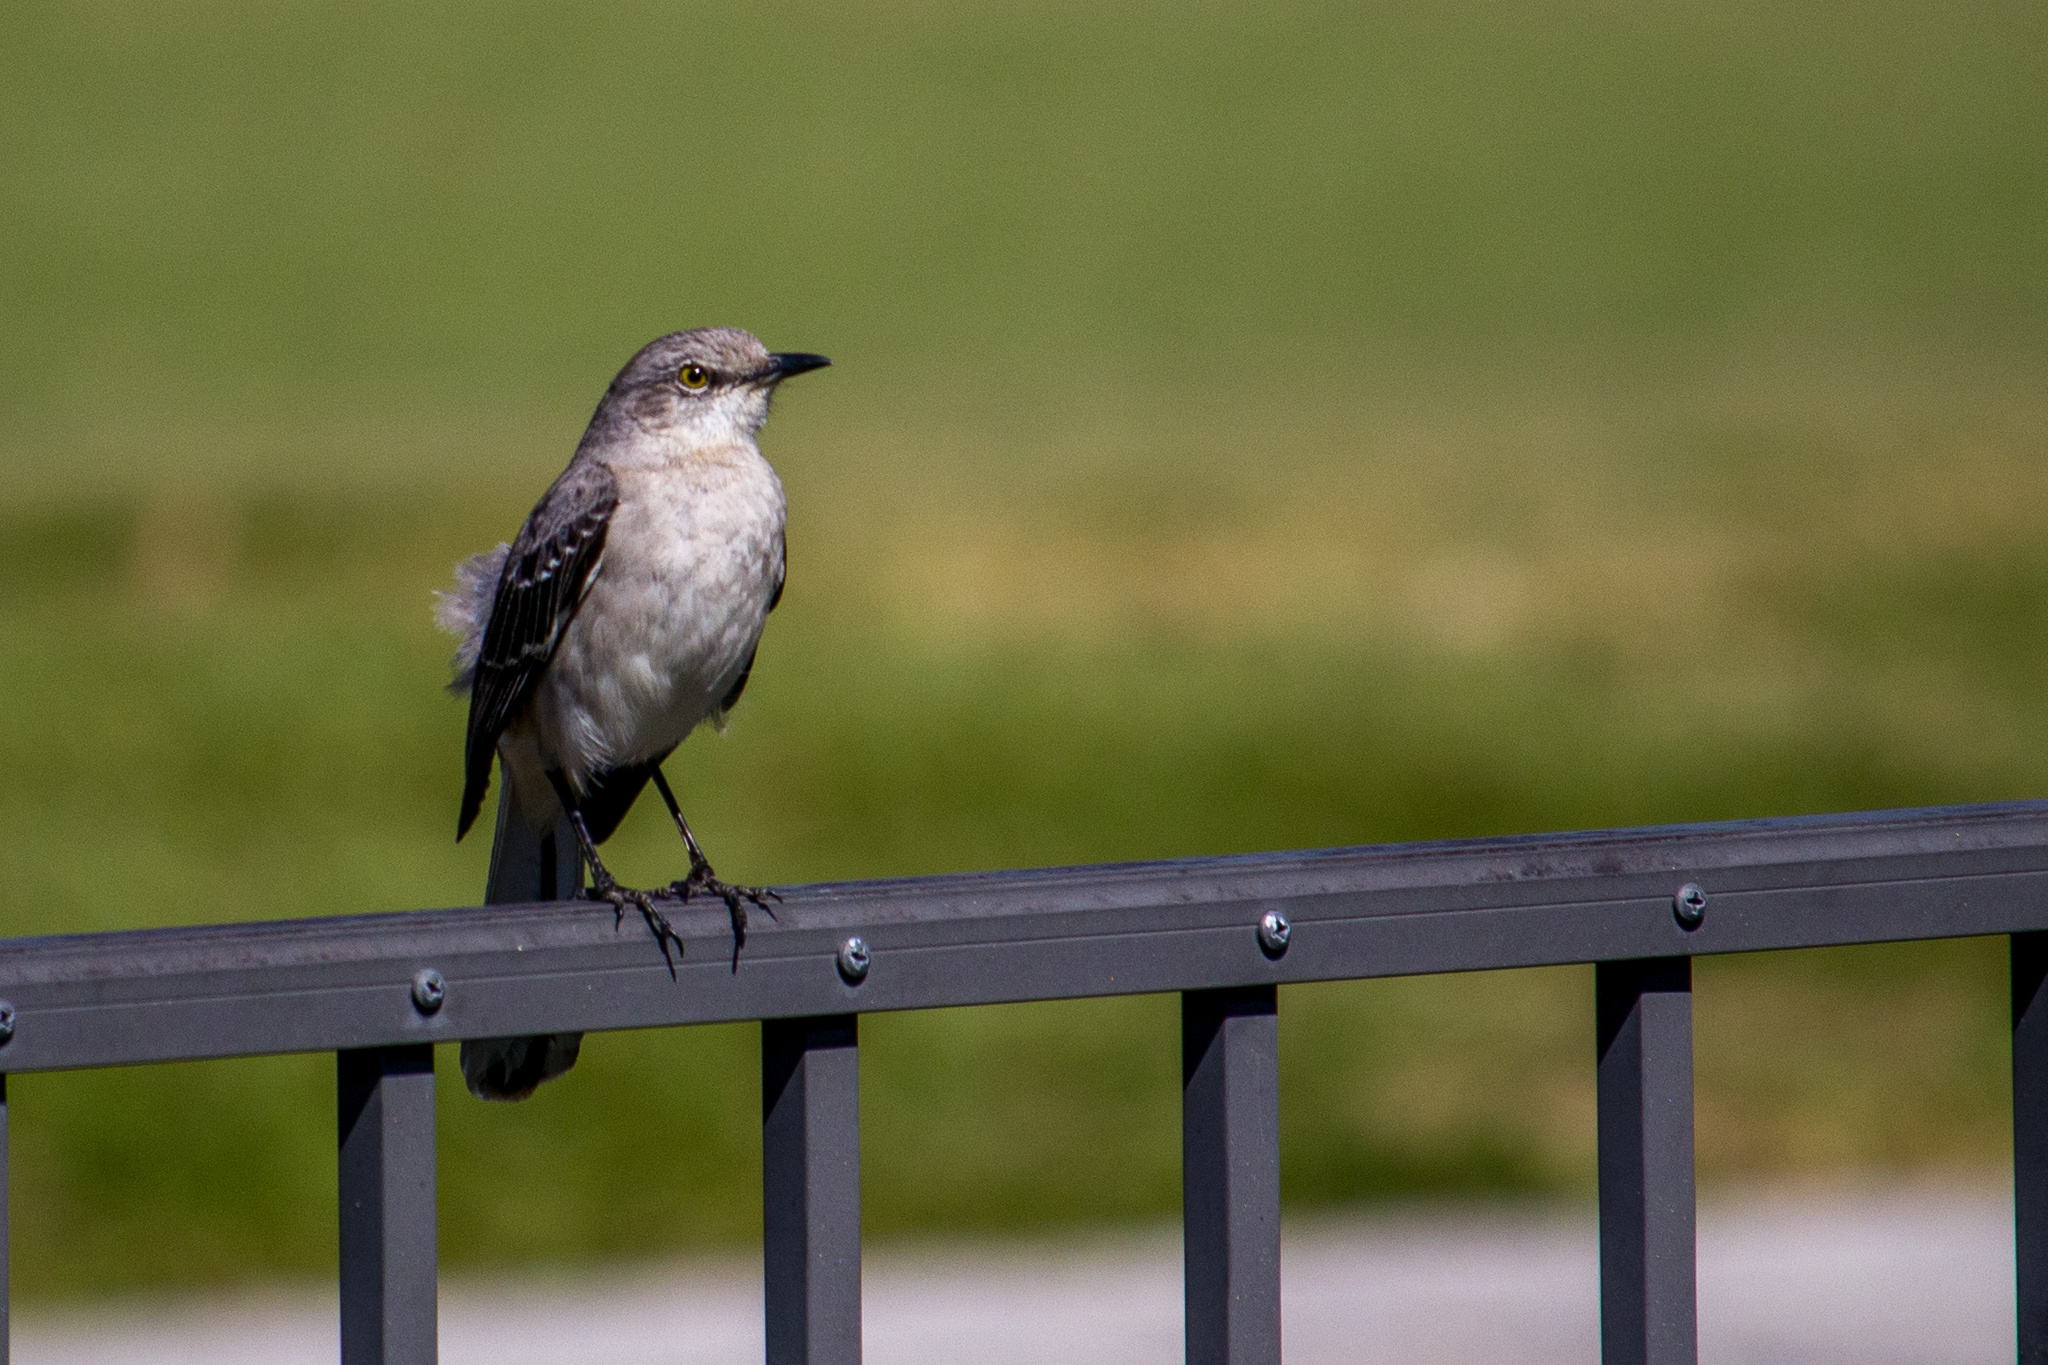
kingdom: Animalia
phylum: Chordata
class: Aves
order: Passeriformes
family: Mimidae
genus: Mimus
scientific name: Mimus polyglottos
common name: Northern mockingbird
